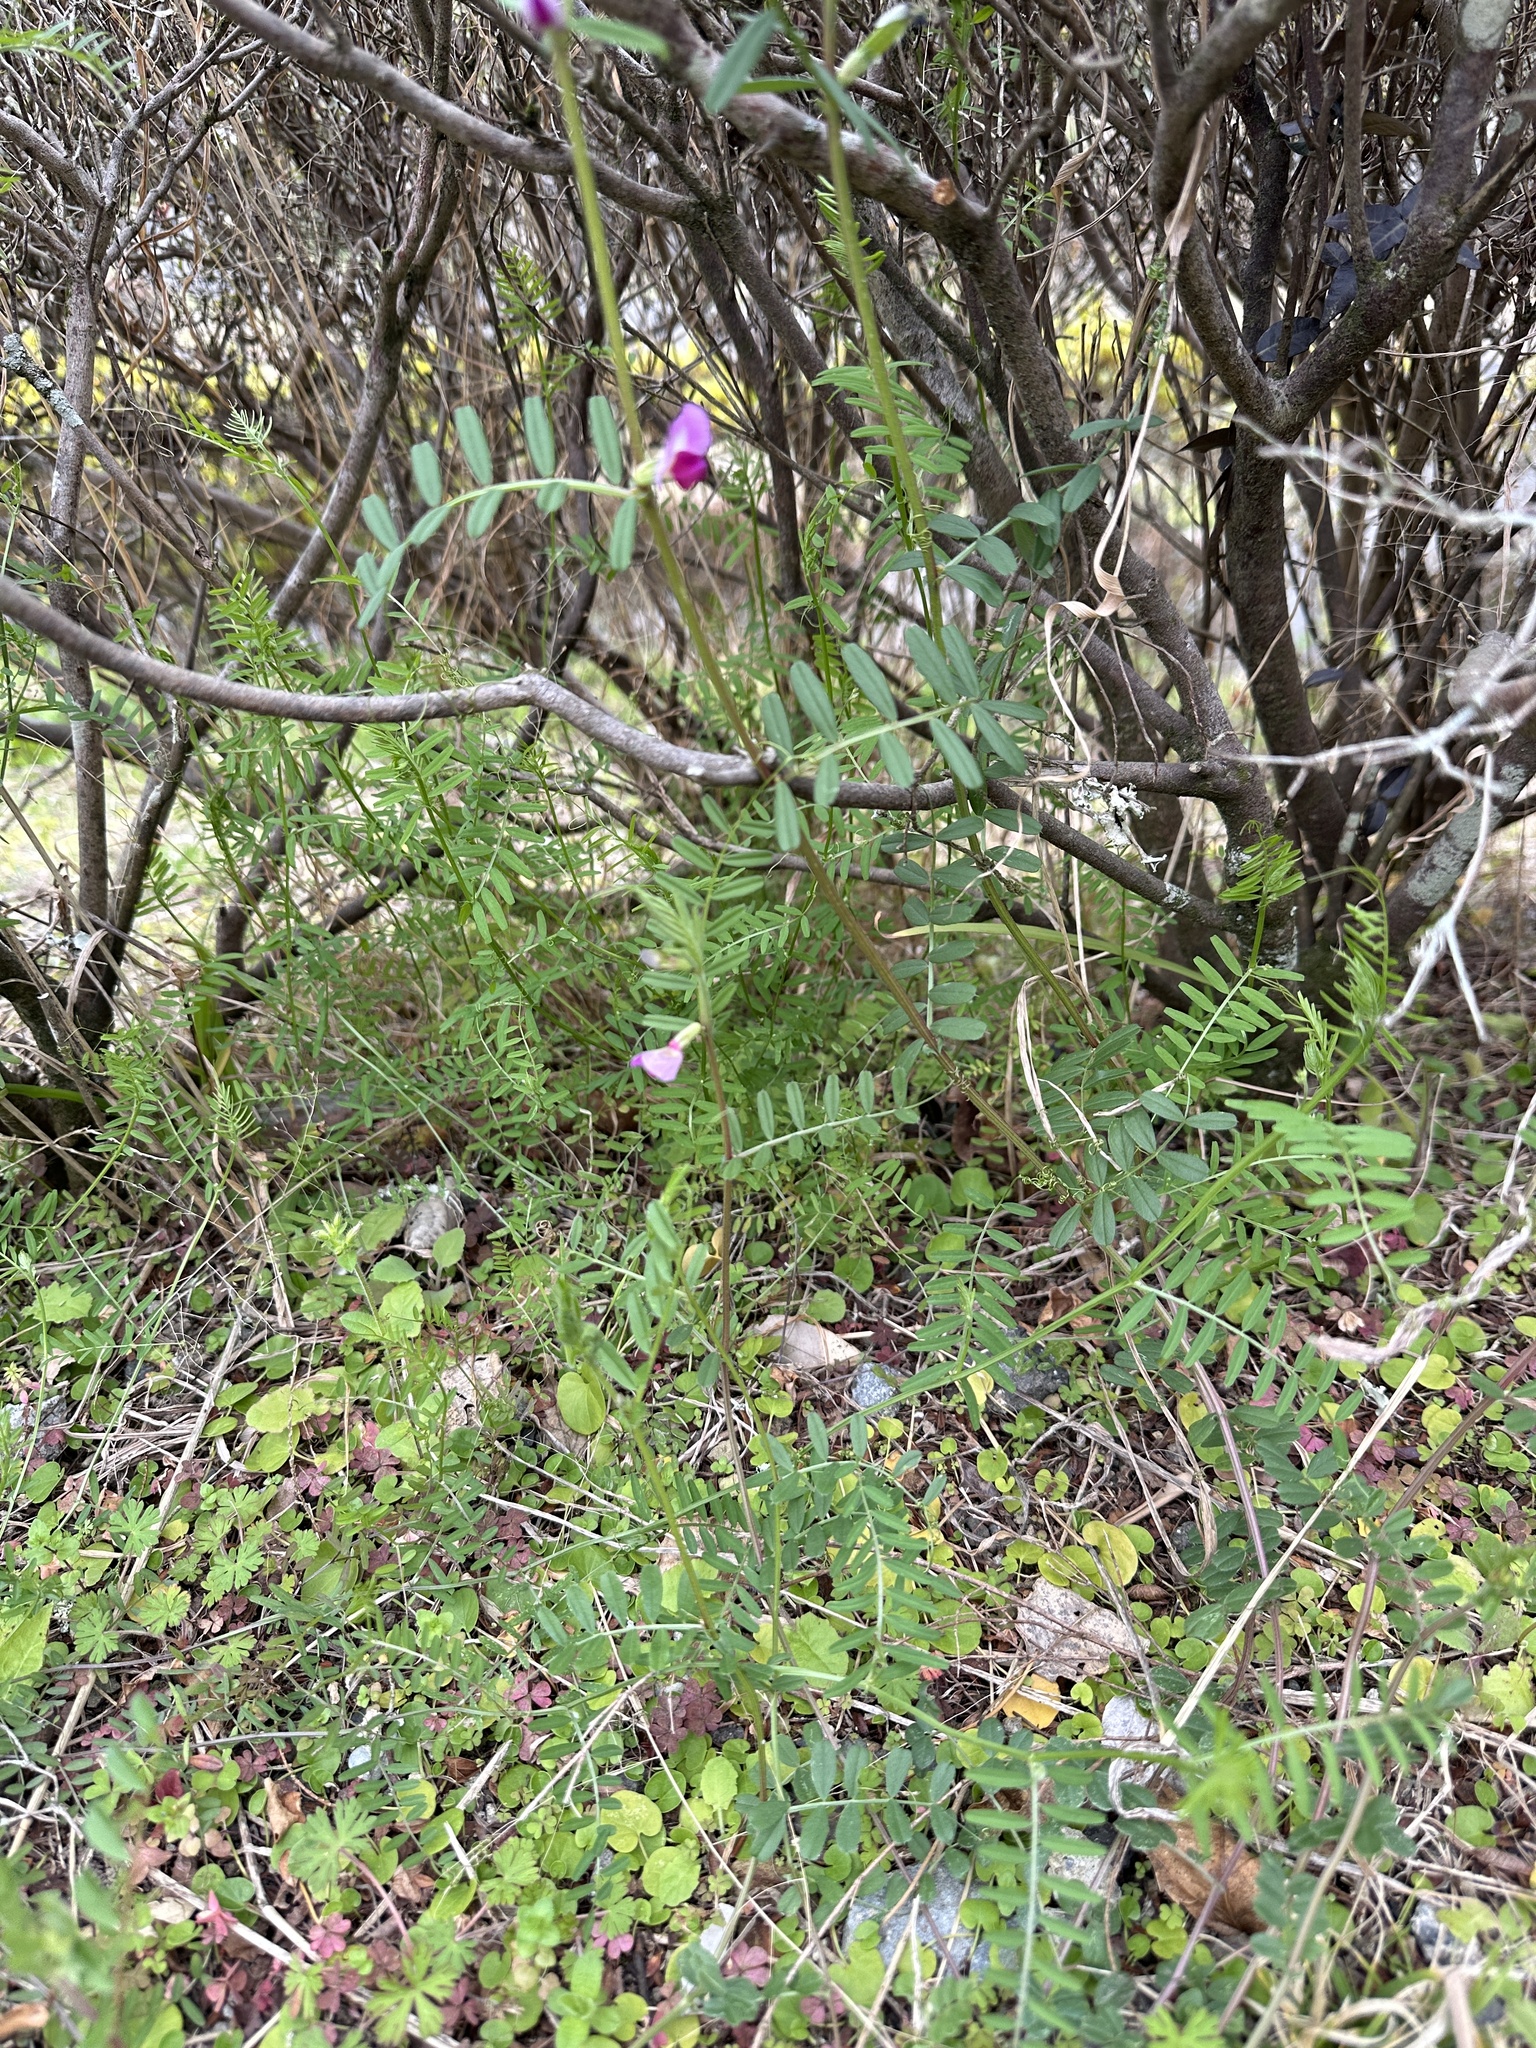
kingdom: Plantae
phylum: Tracheophyta
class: Magnoliopsida
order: Fabales
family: Fabaceae
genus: Vicia
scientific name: Vicia sativa
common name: Garden vetch
